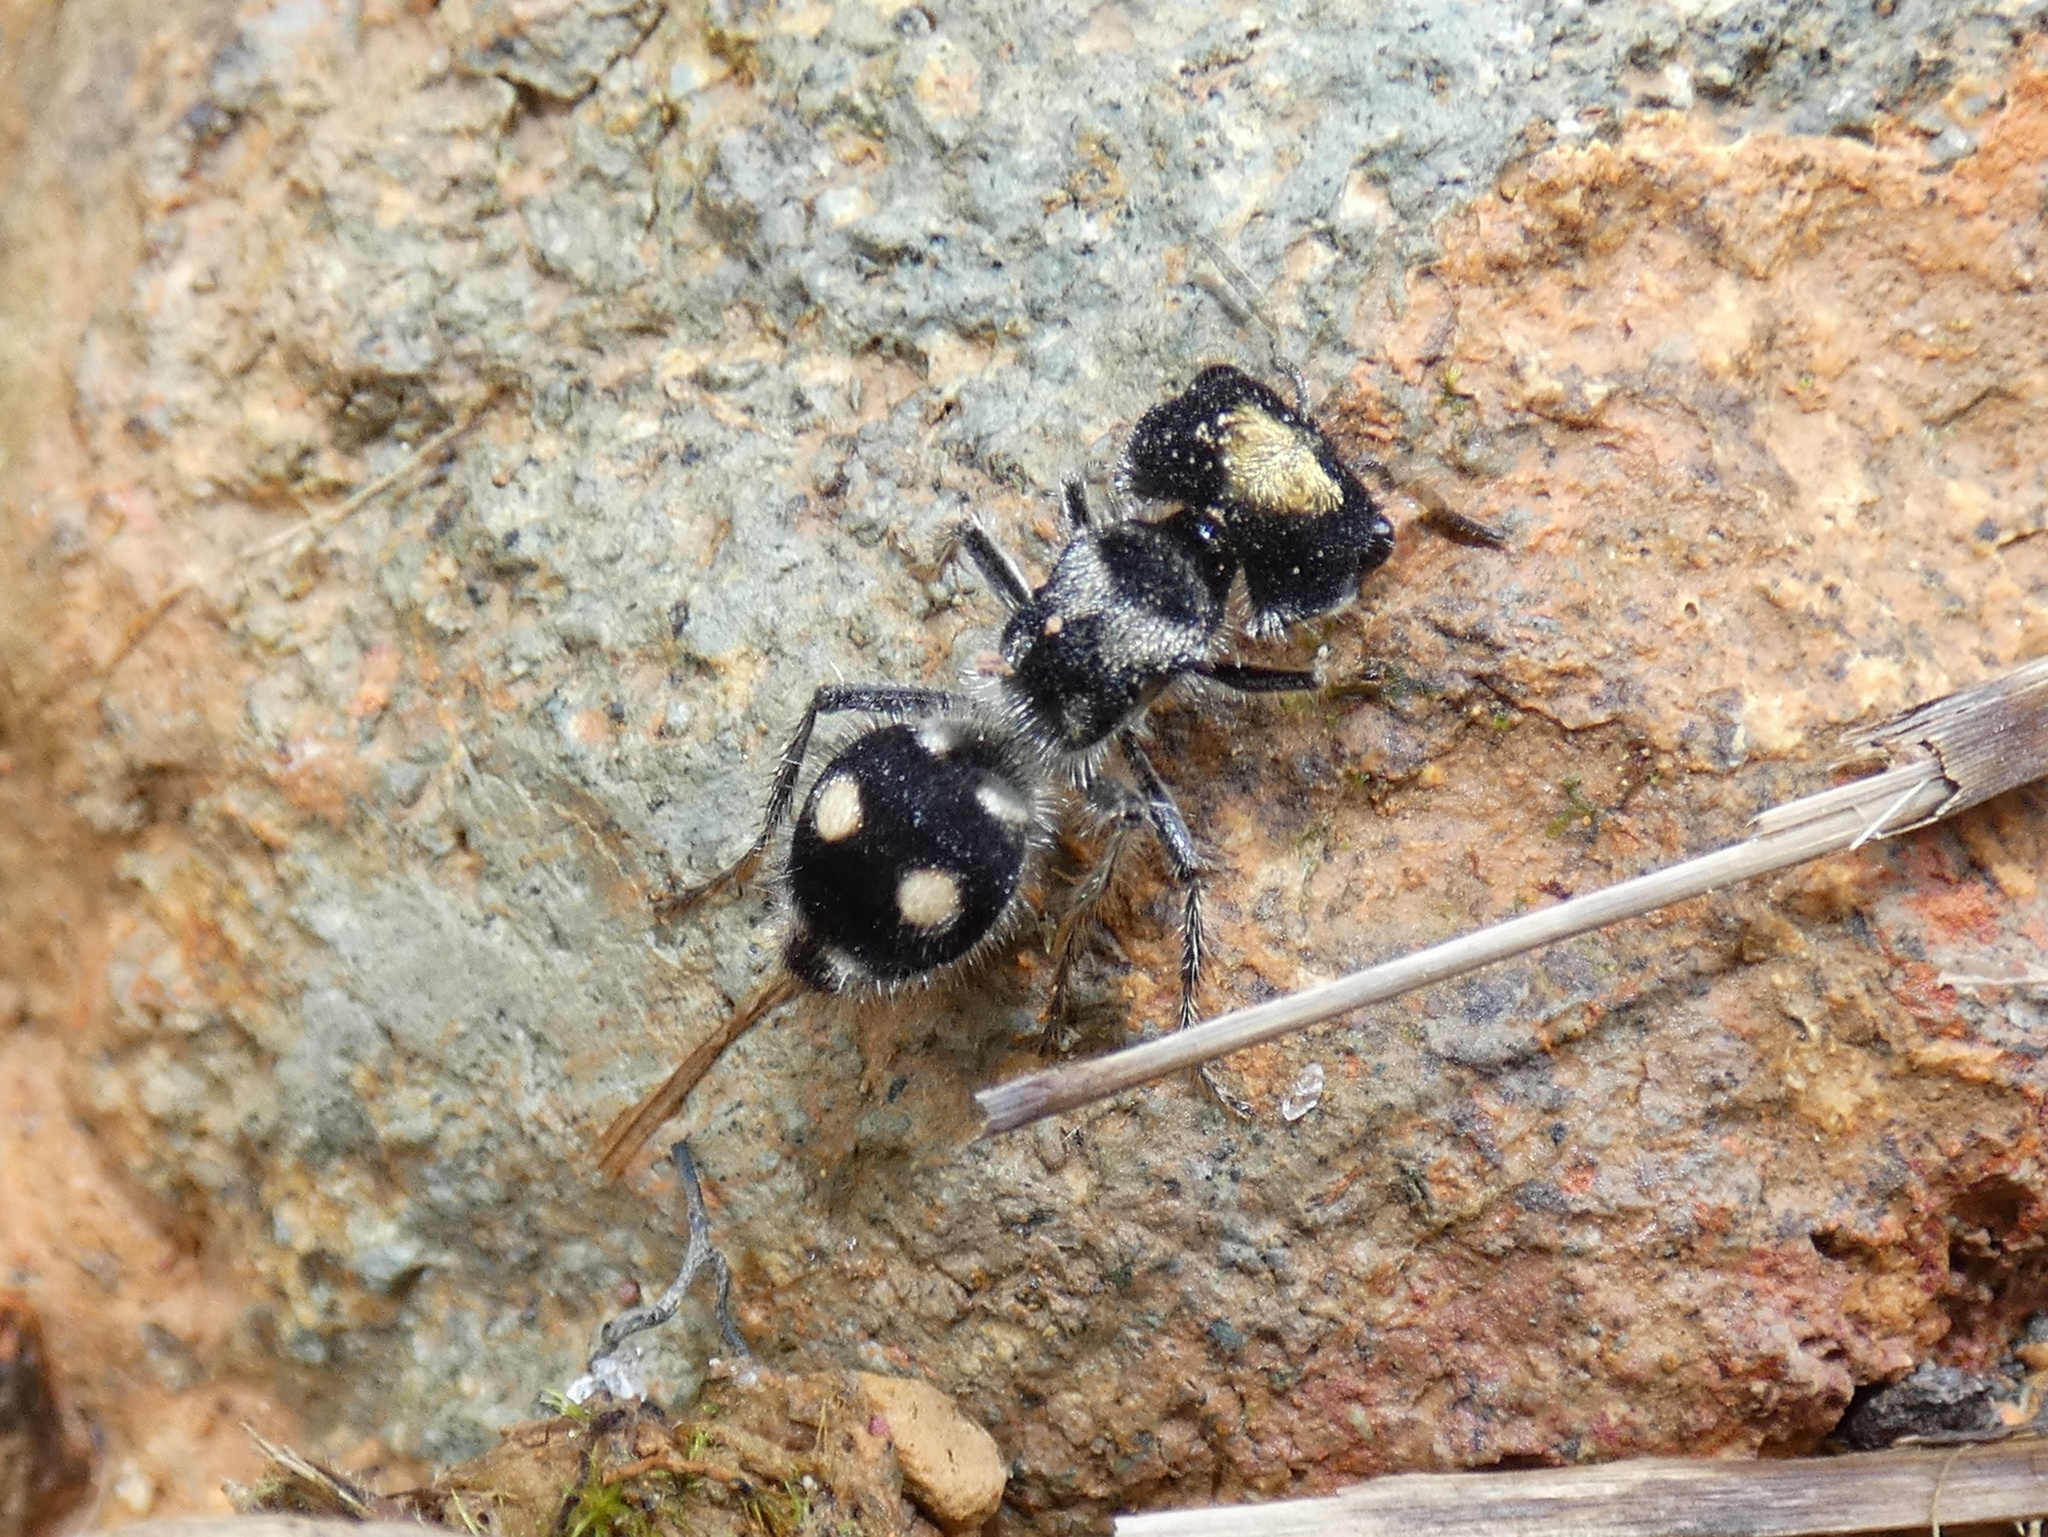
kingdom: Animalia
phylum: Arthropoda
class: Insecta
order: Hymenoptera
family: Mutillidae
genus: Hoplognathoca
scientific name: Hoplognathoca costarricensis
